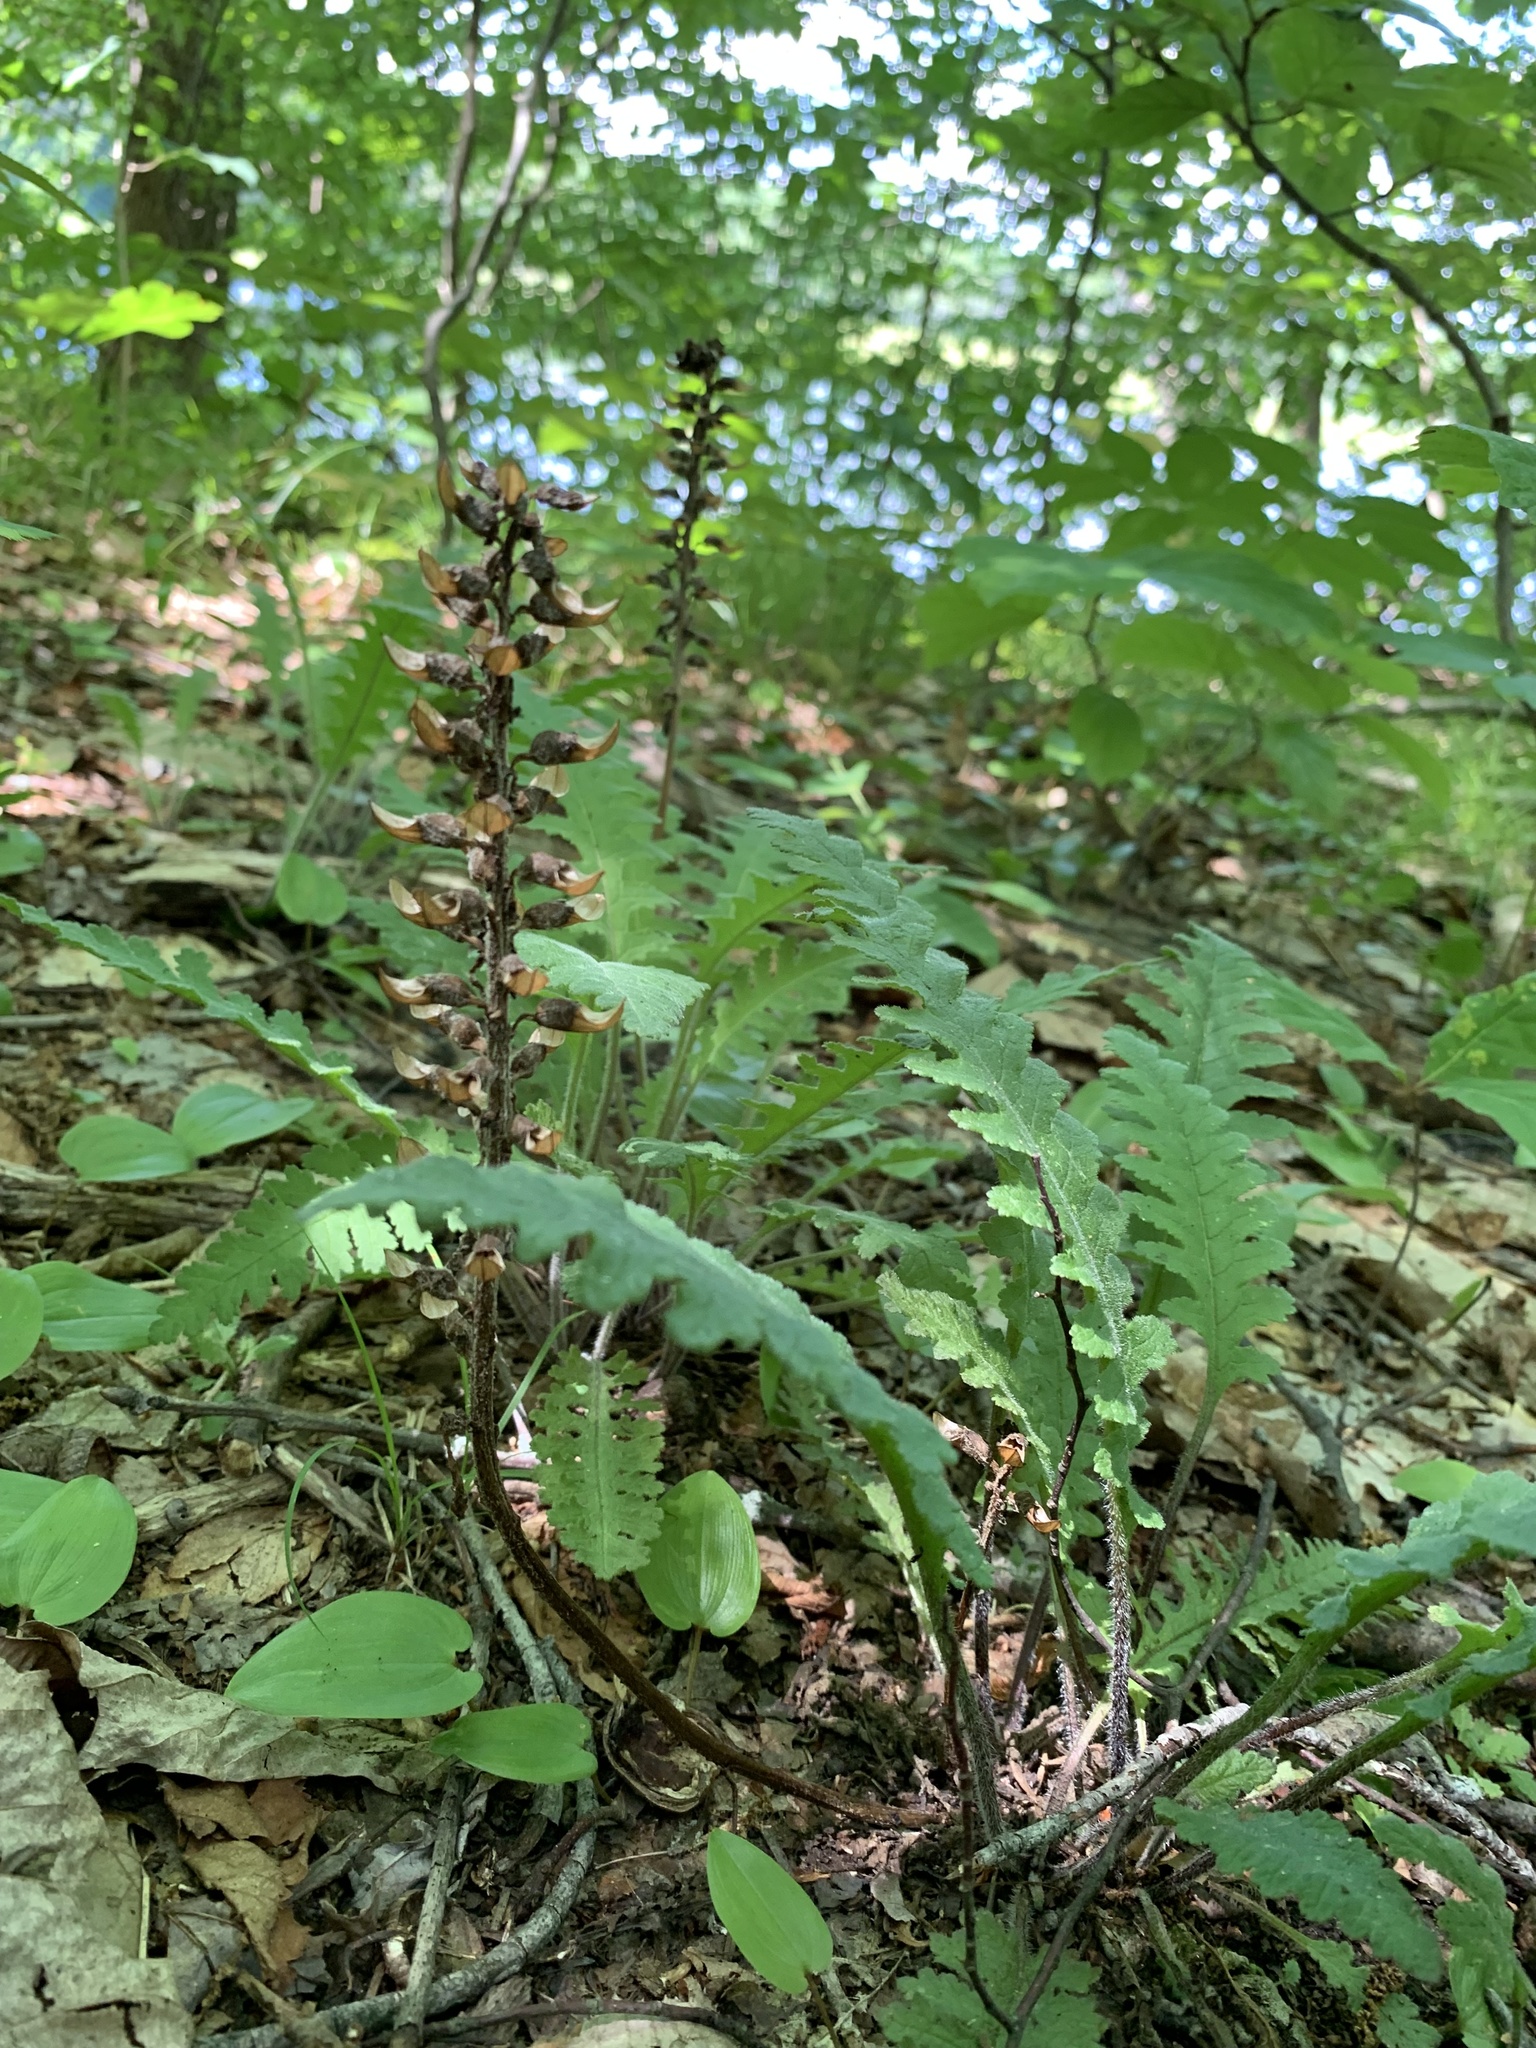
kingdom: Plantae
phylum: Tracheophyta
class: Magnoliopsida
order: Lamiales
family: Orobanchaceae
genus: Pedicularis
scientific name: Pedicularis canadensis
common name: Early lousewort
